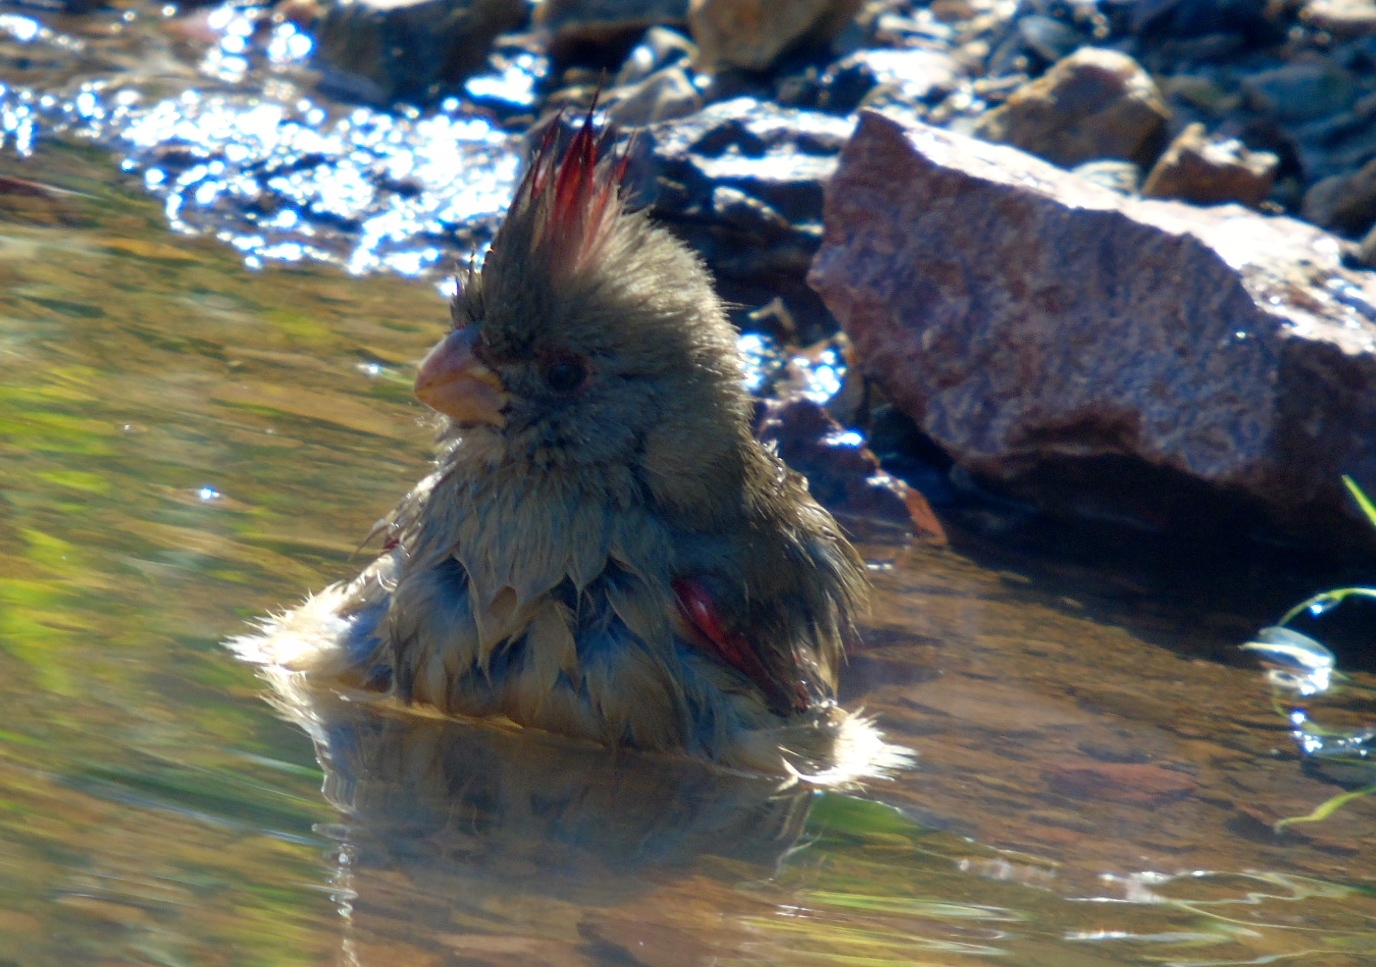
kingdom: Animalia
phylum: Chordata
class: Aves
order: Passeriformes
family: Cardinalidae
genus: Cardinalis
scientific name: Cardinalis sinuatus
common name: Pyrrhuloxia
